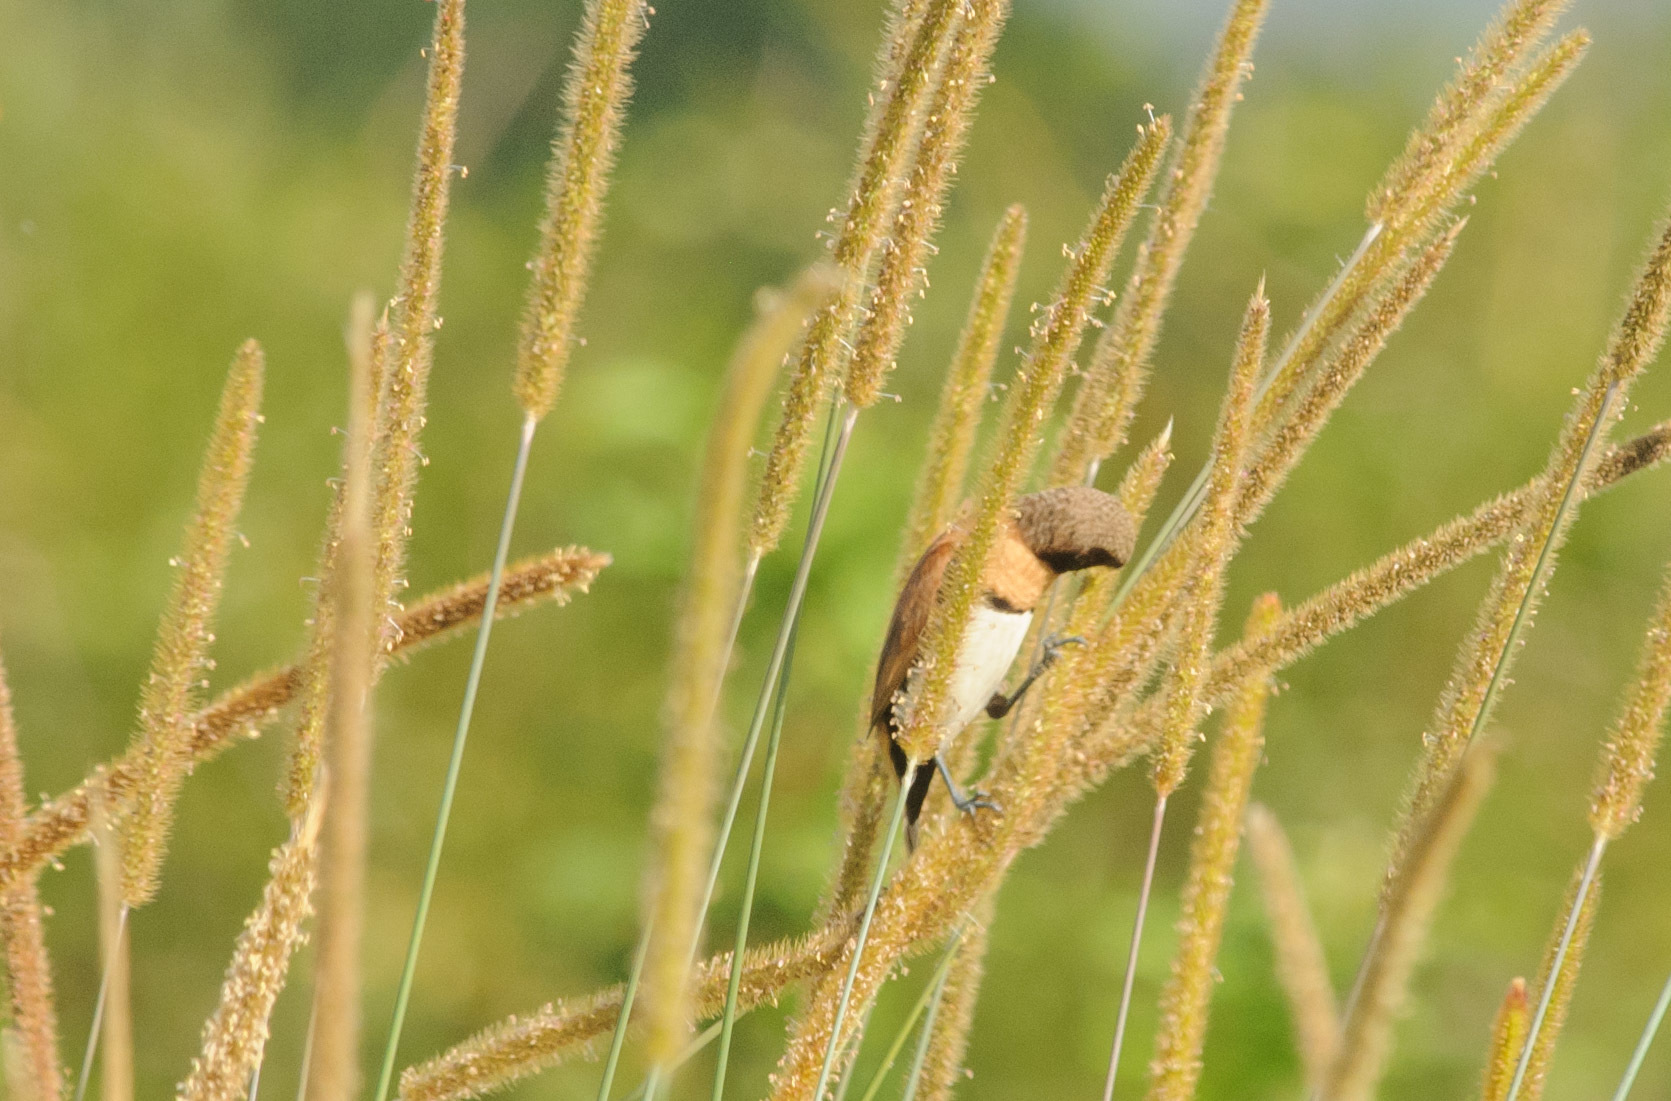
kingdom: Animalia
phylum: Chordata
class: Aves
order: Passeriformes
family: Estrildidae
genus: Lonchura
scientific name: Lonchura castaneothorax
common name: Chestnut-breasted mannikin
